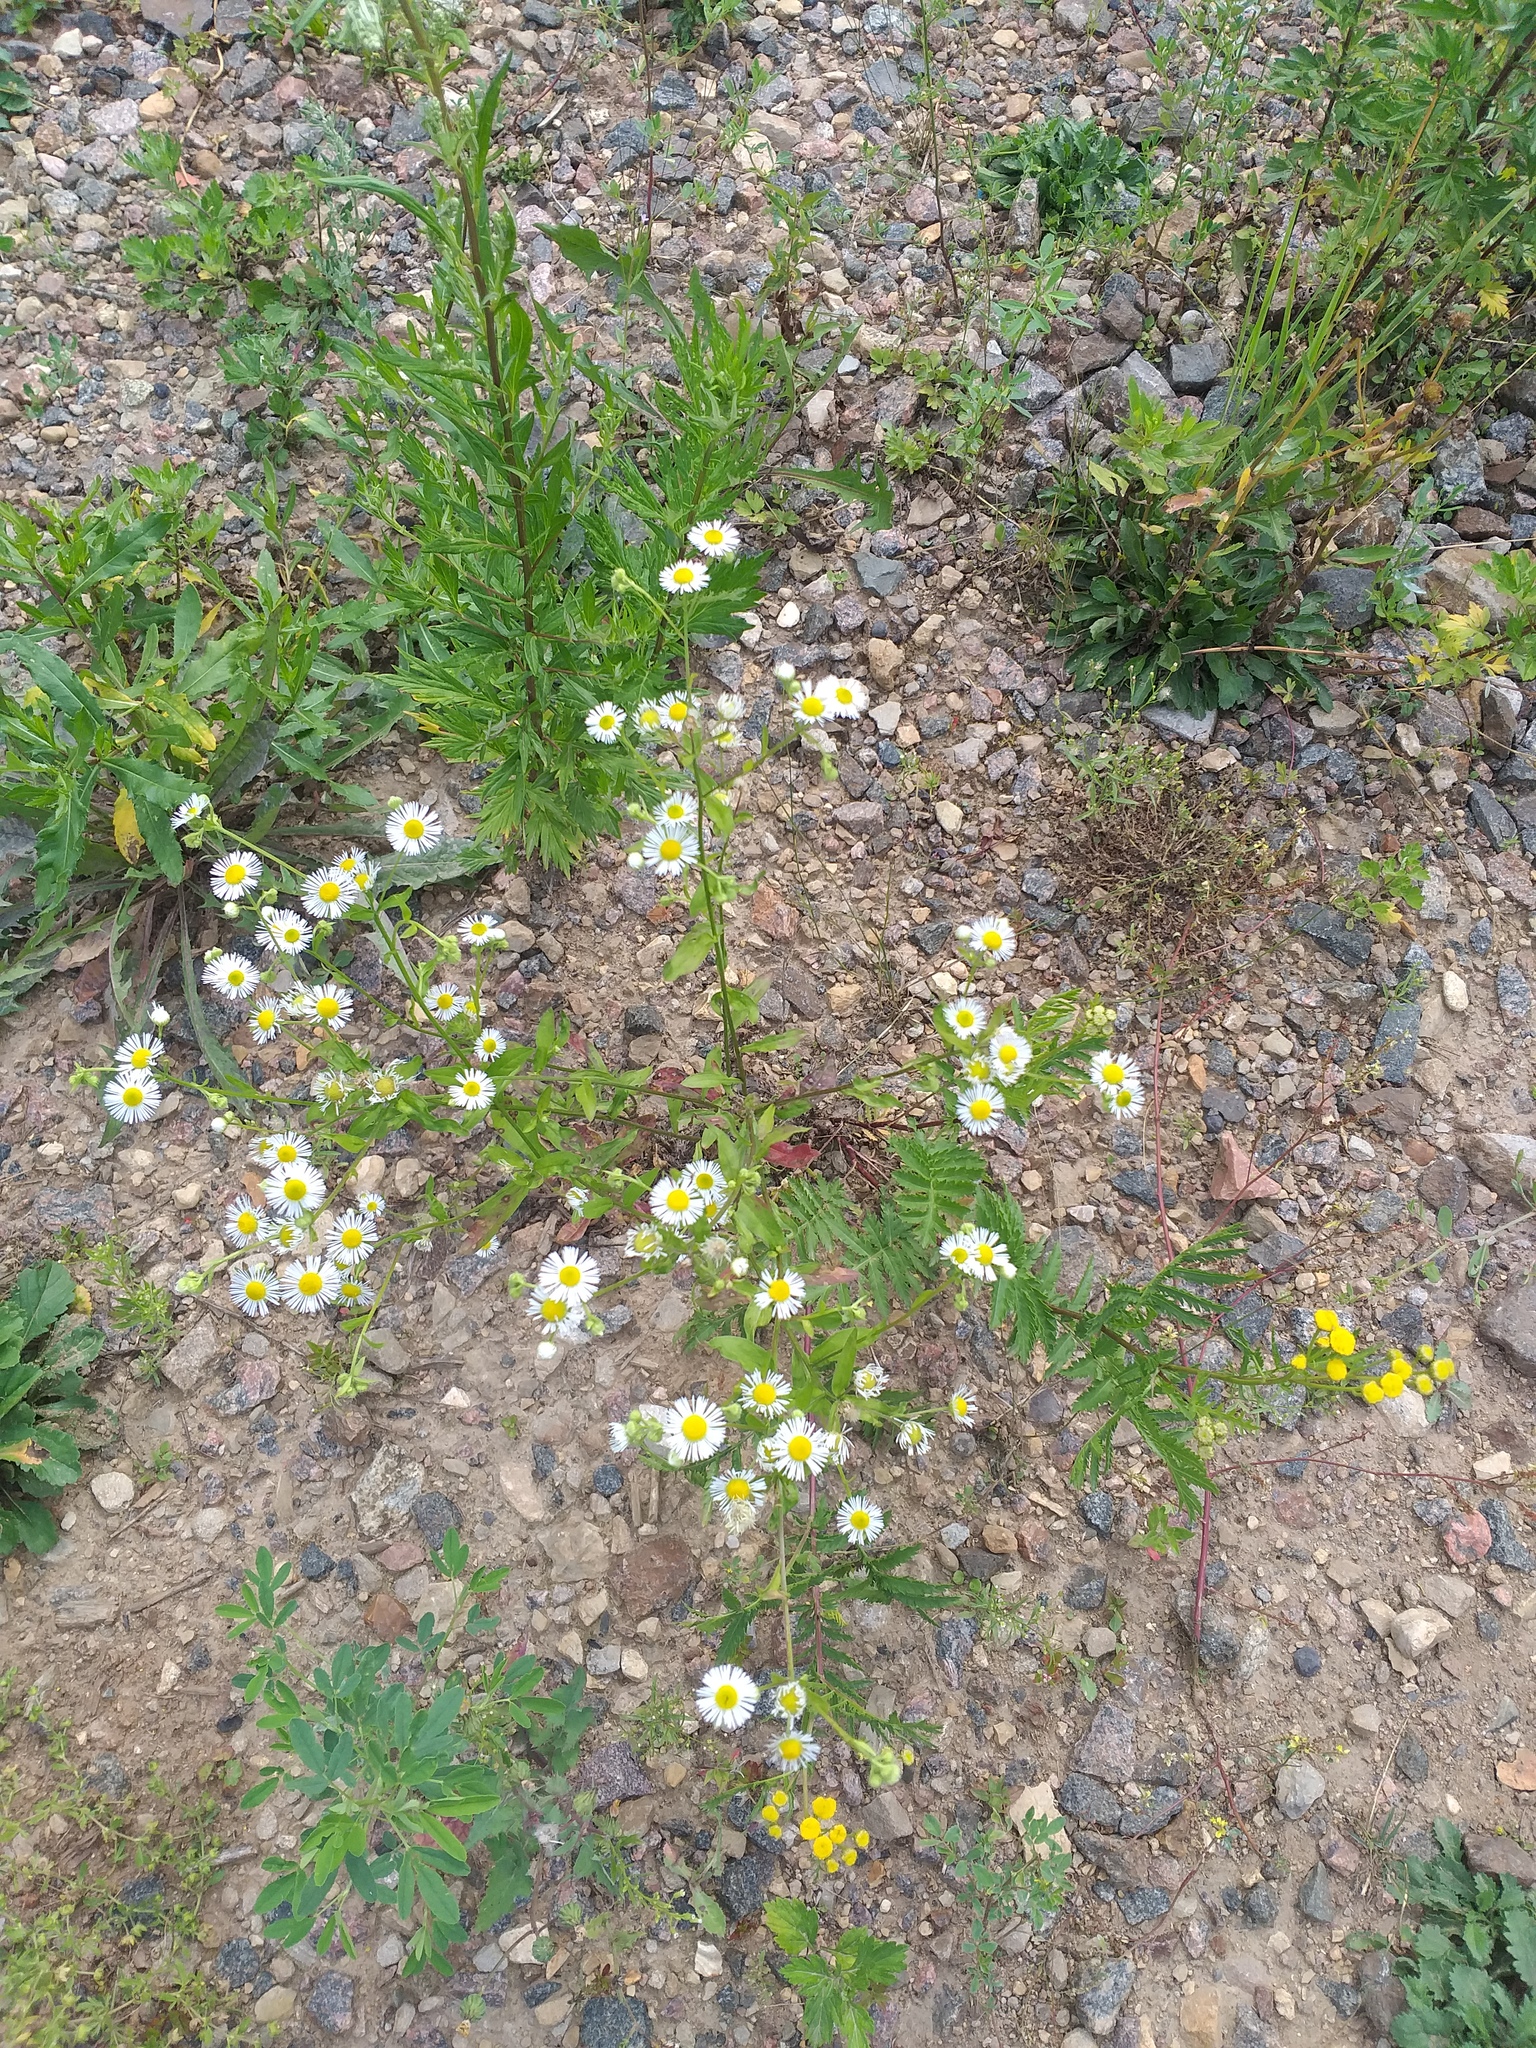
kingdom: Plantae
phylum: Tracheophyta
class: Magnoliopsida
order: Asterales
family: Asteraceae
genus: Erigeron
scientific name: Erigeron annuus
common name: Tall fleabane
